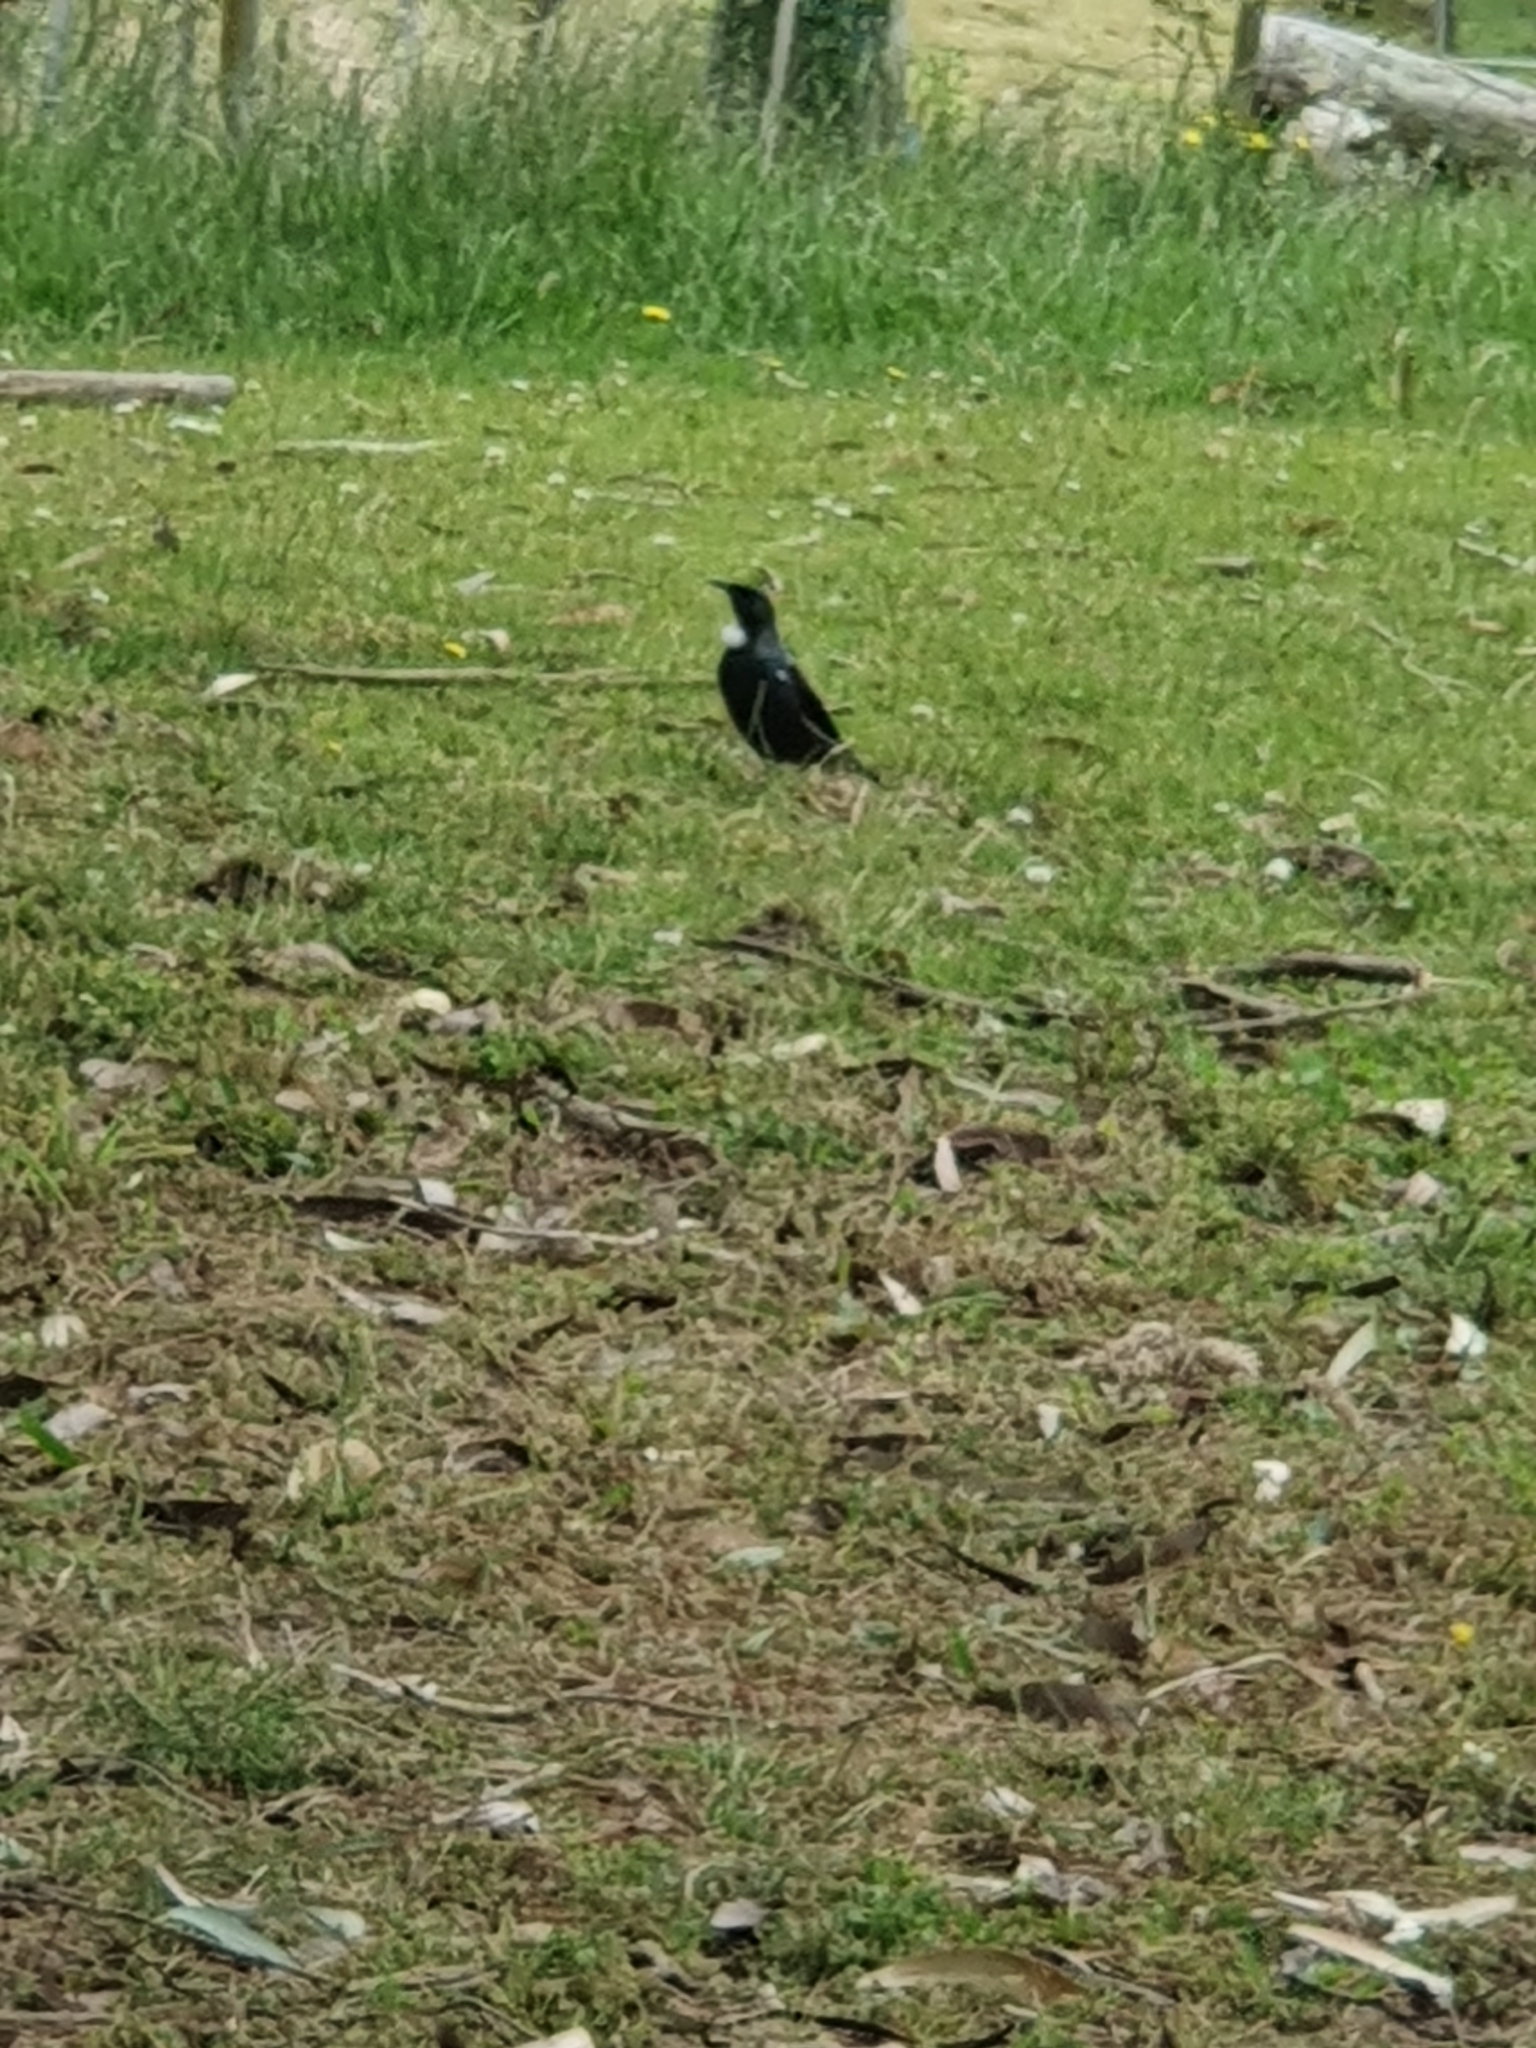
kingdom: Animalia
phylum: Chordata
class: Aves
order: Passeriformes
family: Meliphagidae
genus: Prosthemadera
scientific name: Prosthemadera novaeseelandiae
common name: Tui
